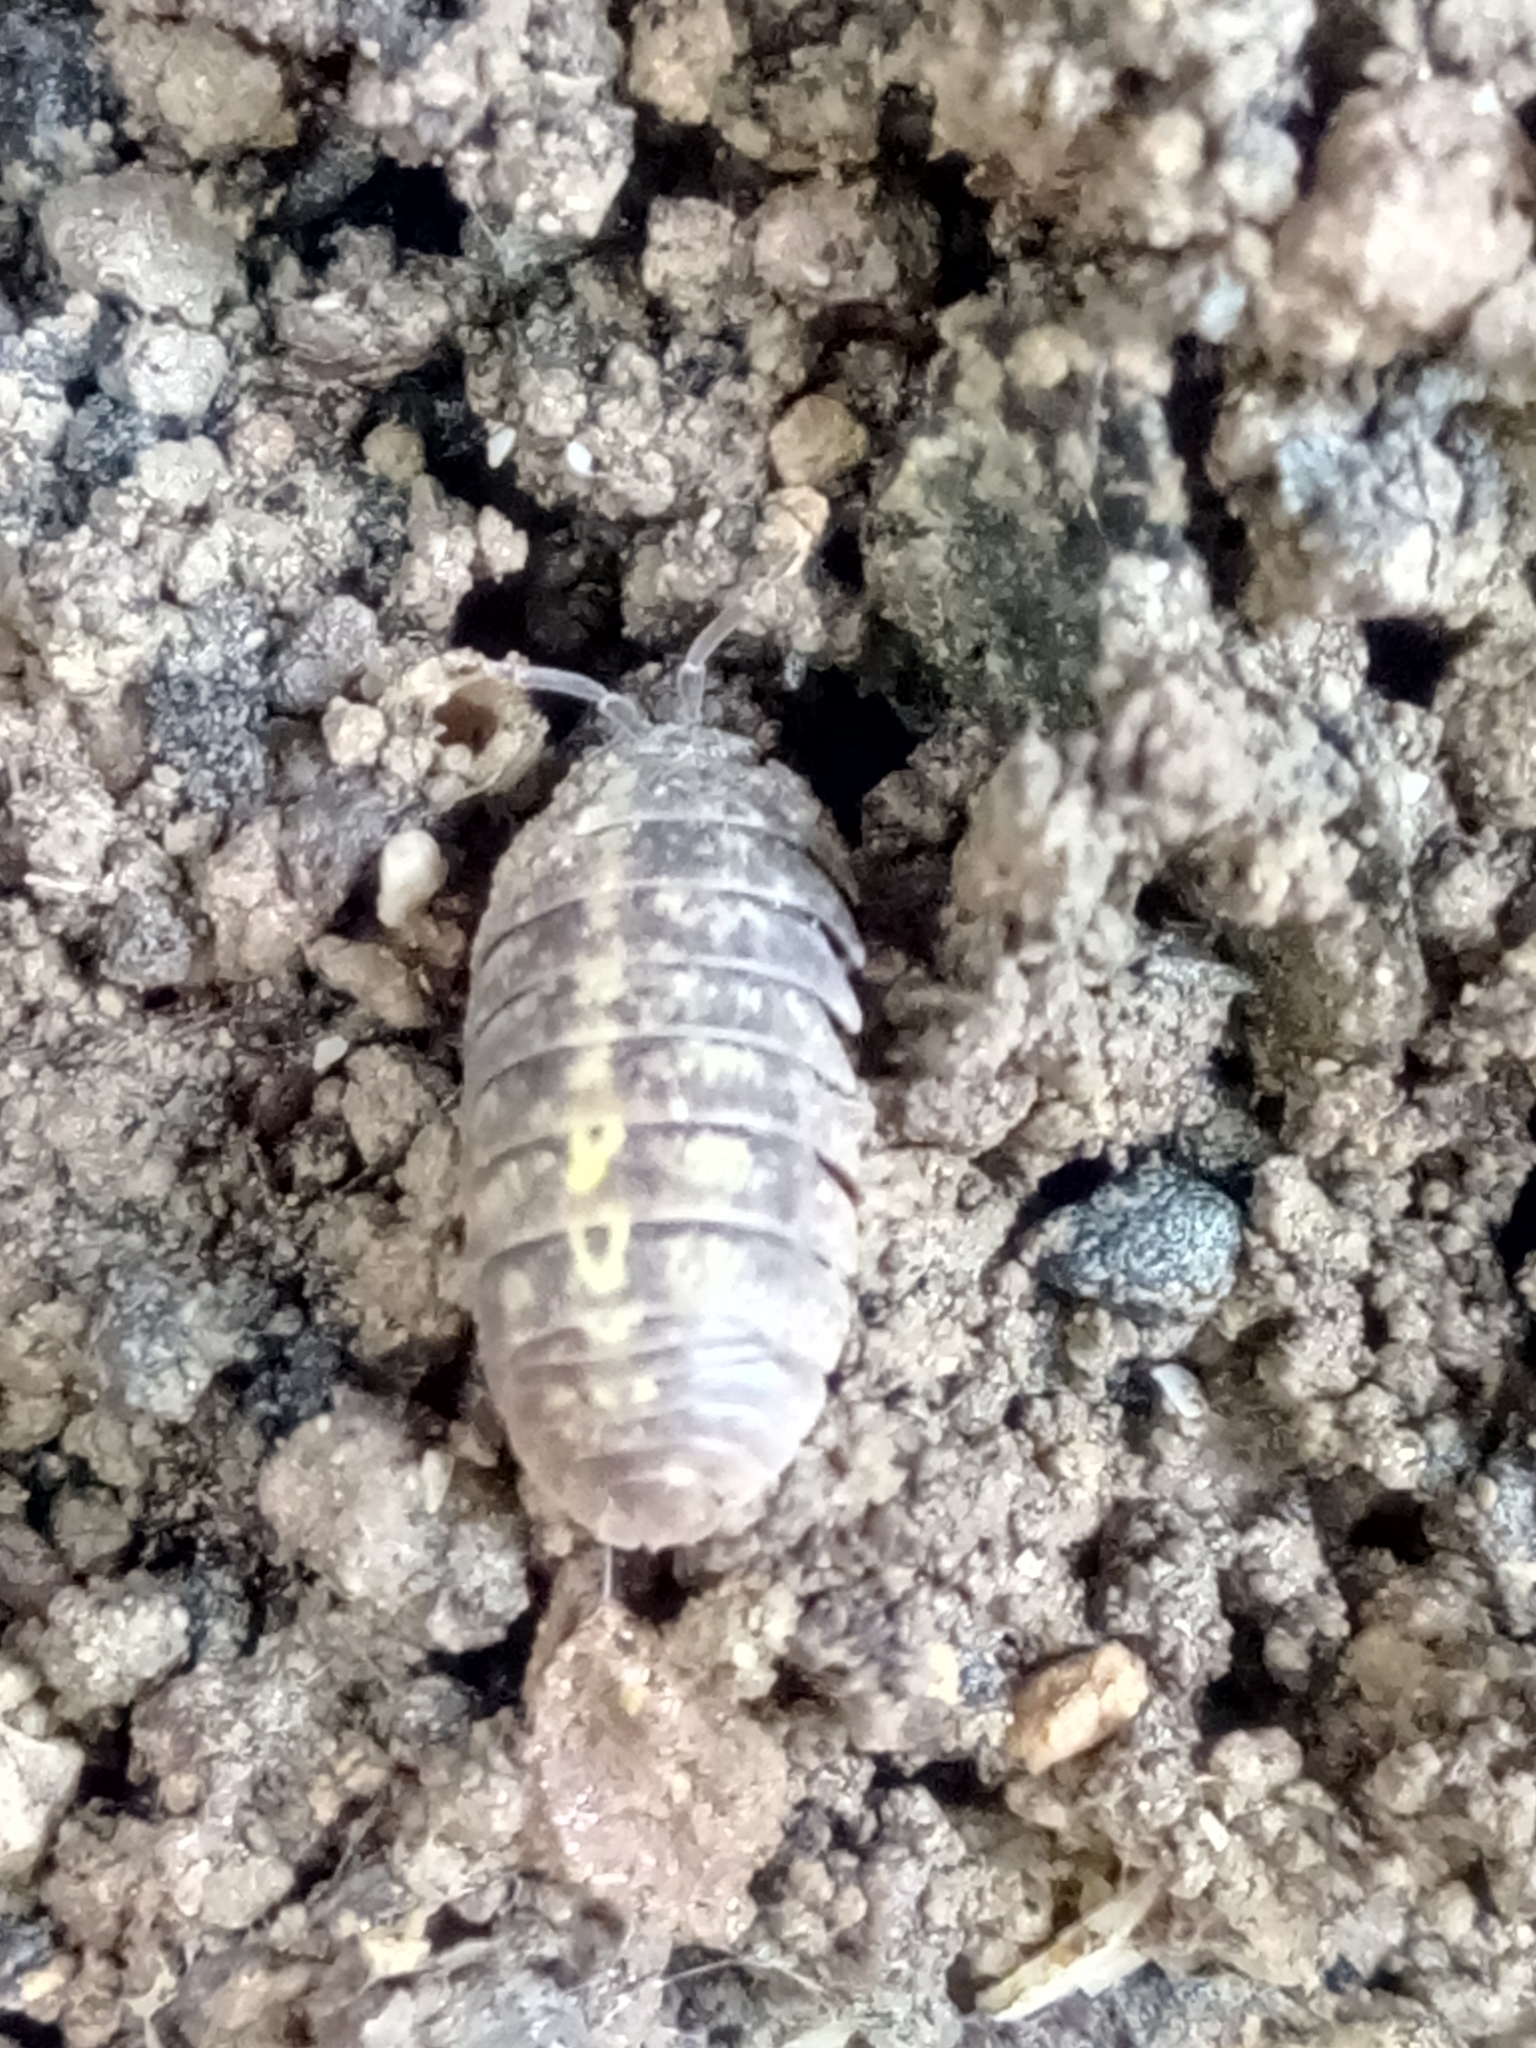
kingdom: Animalia
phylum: Arthropoda
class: Malacostraca
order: Isopoda
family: Armadillidiidae
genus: Armadillidium
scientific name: Armadillidium vulgare
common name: Common pill woodlouse
